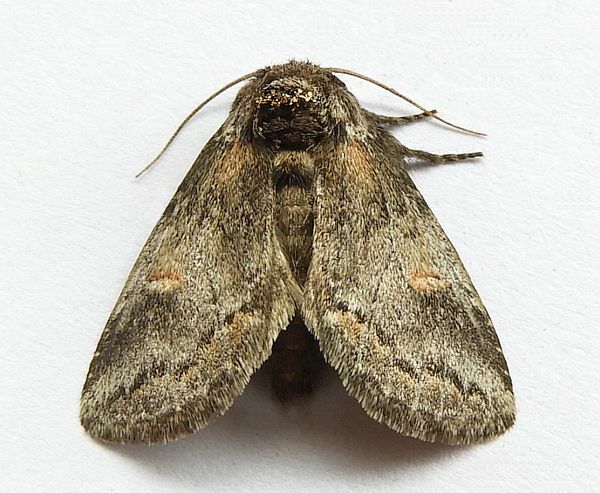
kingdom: Animalia
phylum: Arthropoda
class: Insecta
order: Lepidoptera
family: Notodontidae
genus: Kalkoma
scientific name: Kalkoma zapata
